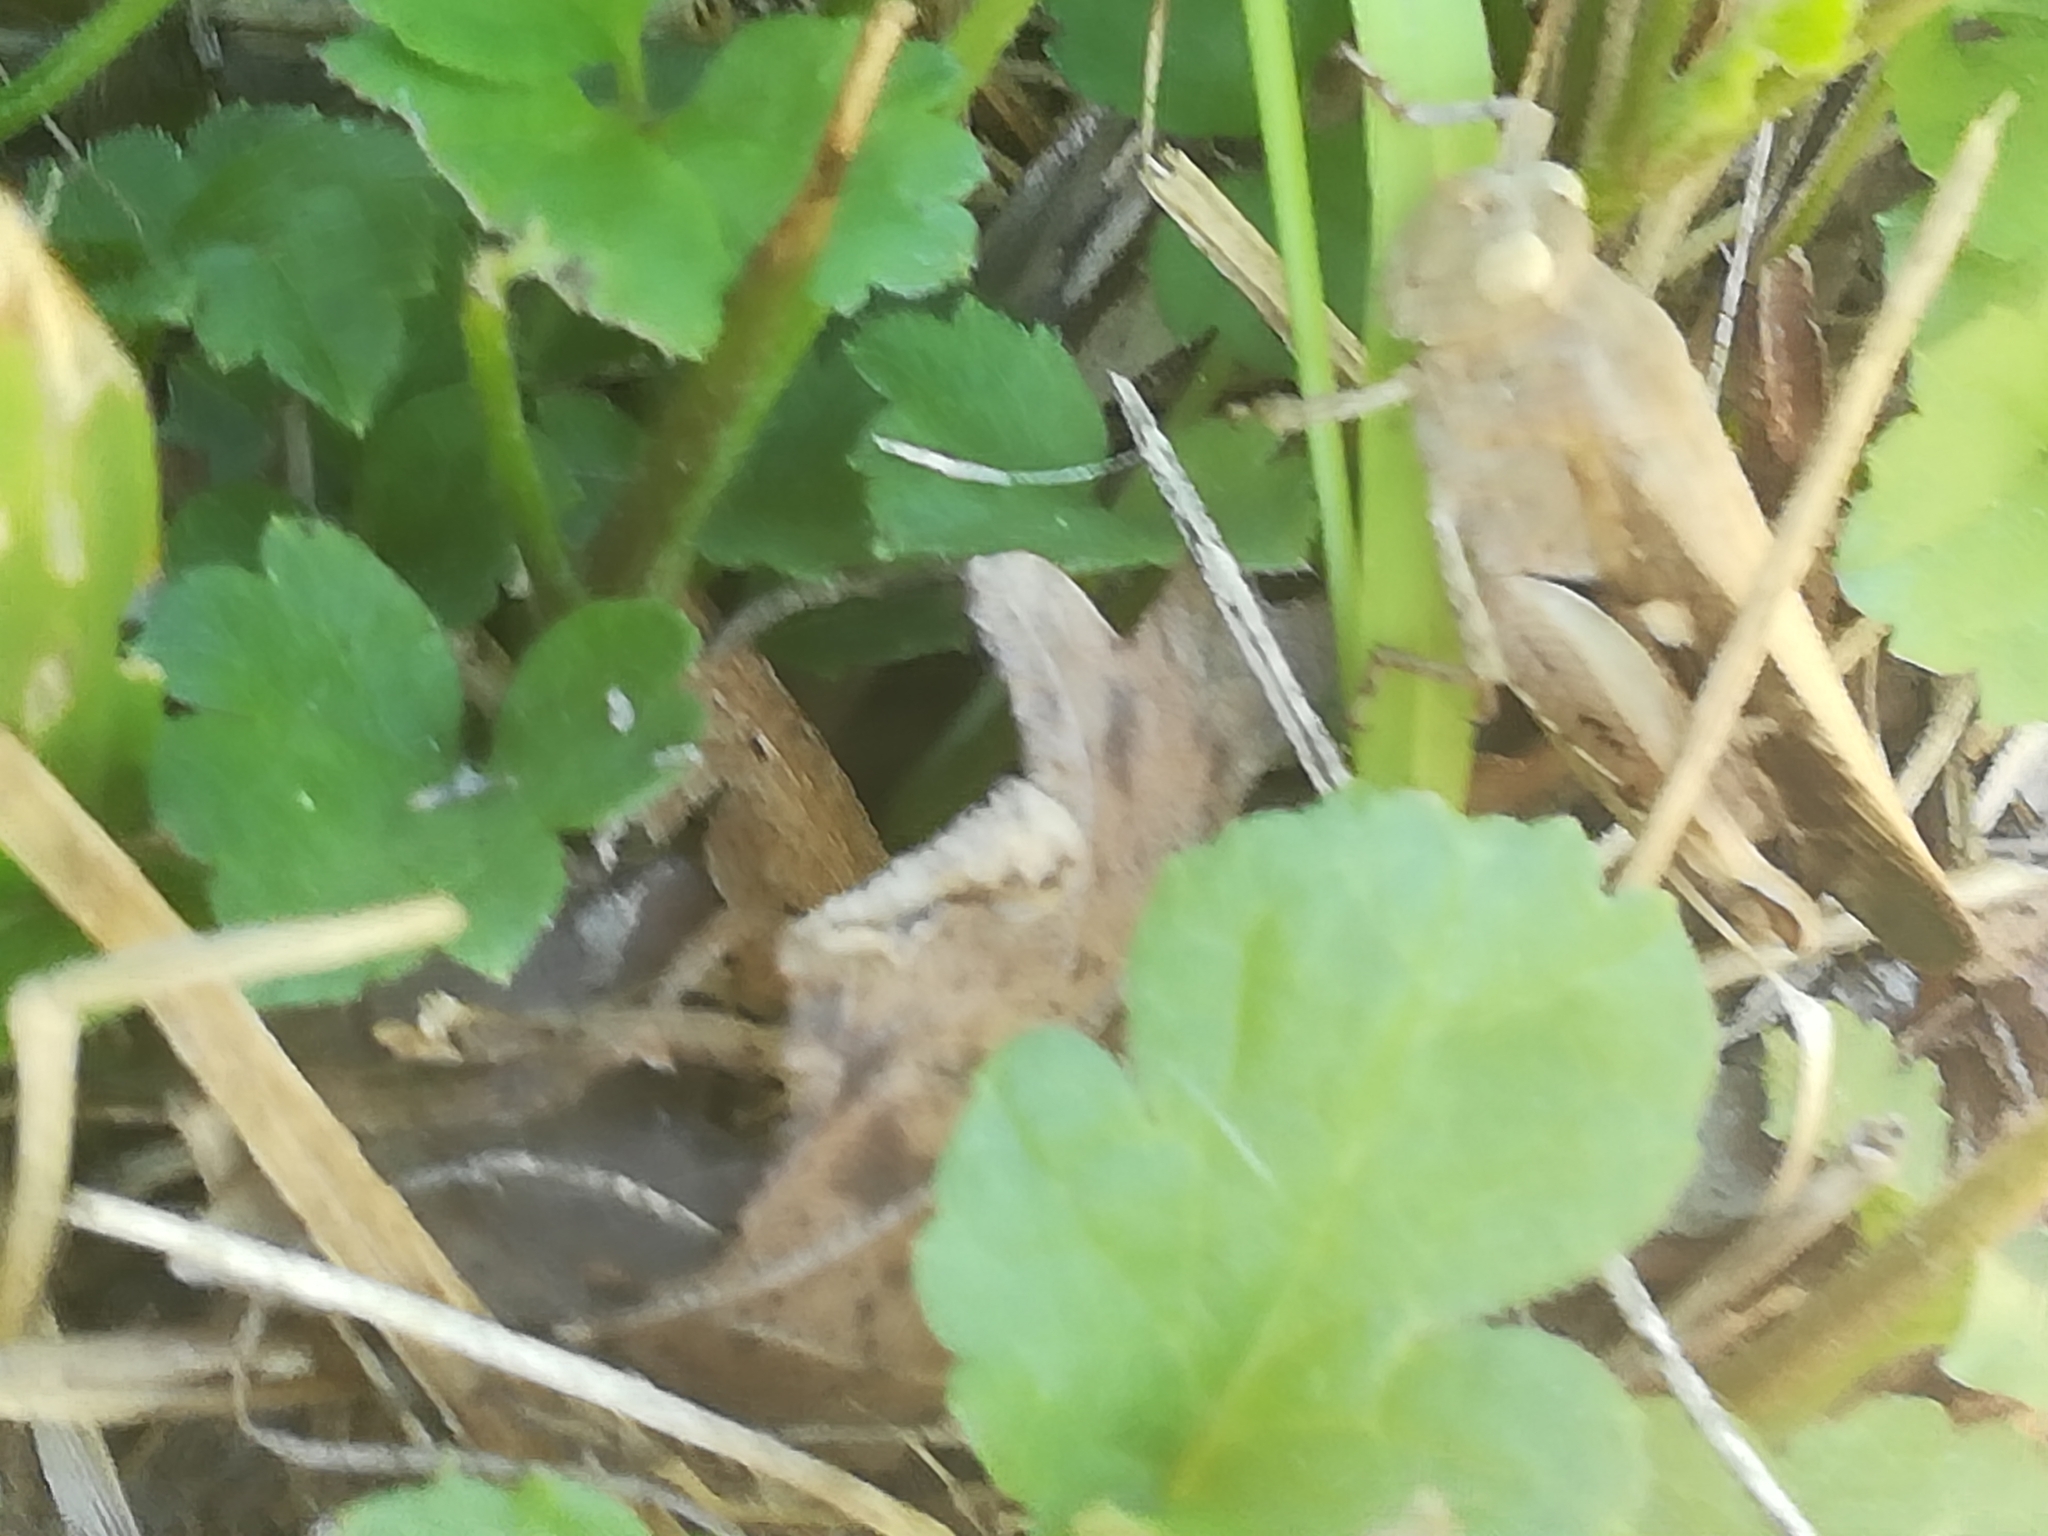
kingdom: Animalia
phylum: Arthropoda
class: Insecta
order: Orthoptera
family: Acrididae
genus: Aiolopus
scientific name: Aiolopus strepens
